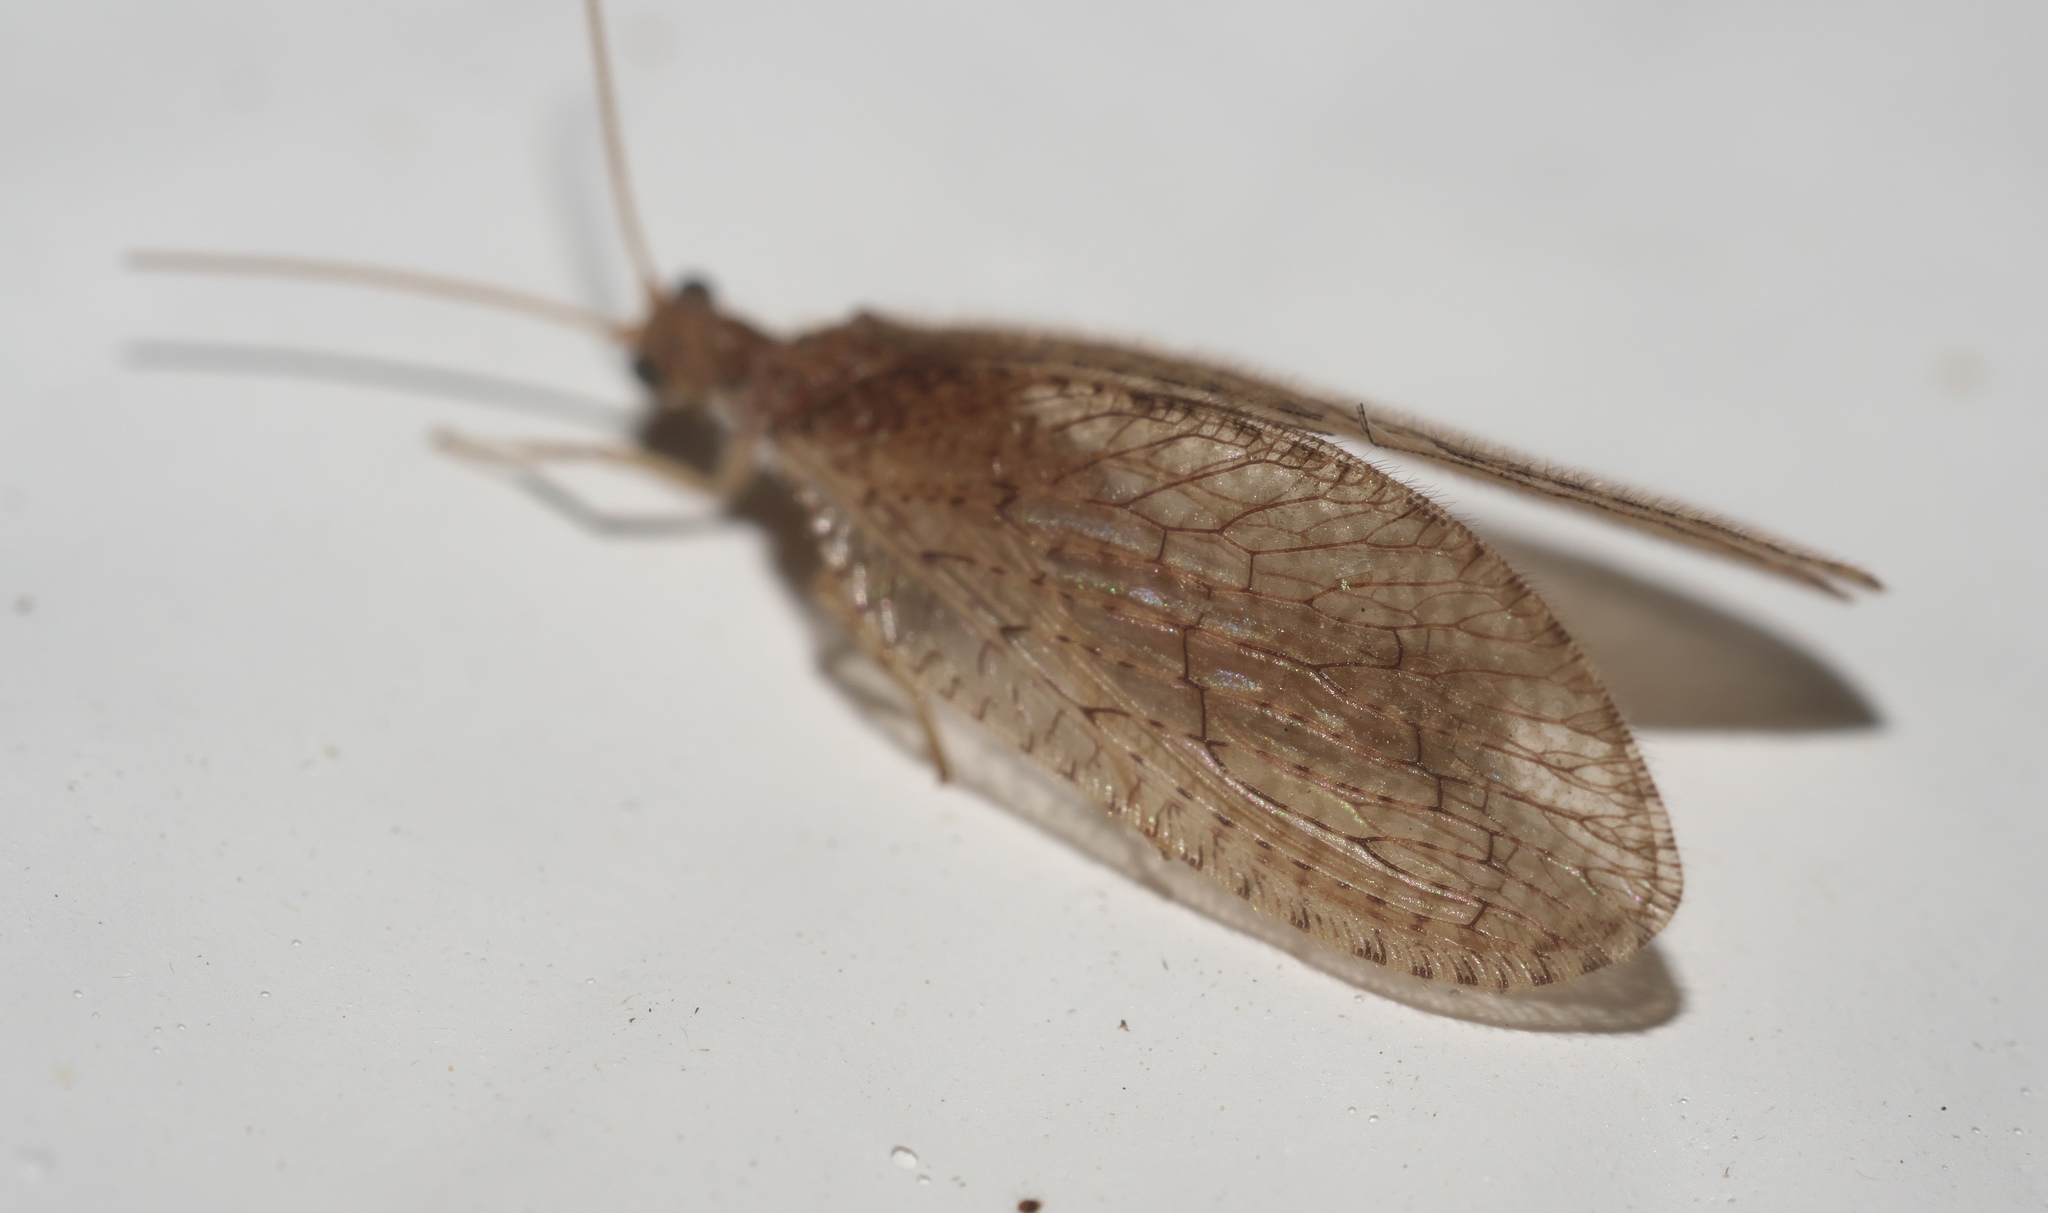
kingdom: Animalia
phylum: Arthropoda
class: Insecta
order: Neuroptera
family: Hemerobiidae
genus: Micromus
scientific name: Micromus posticus
